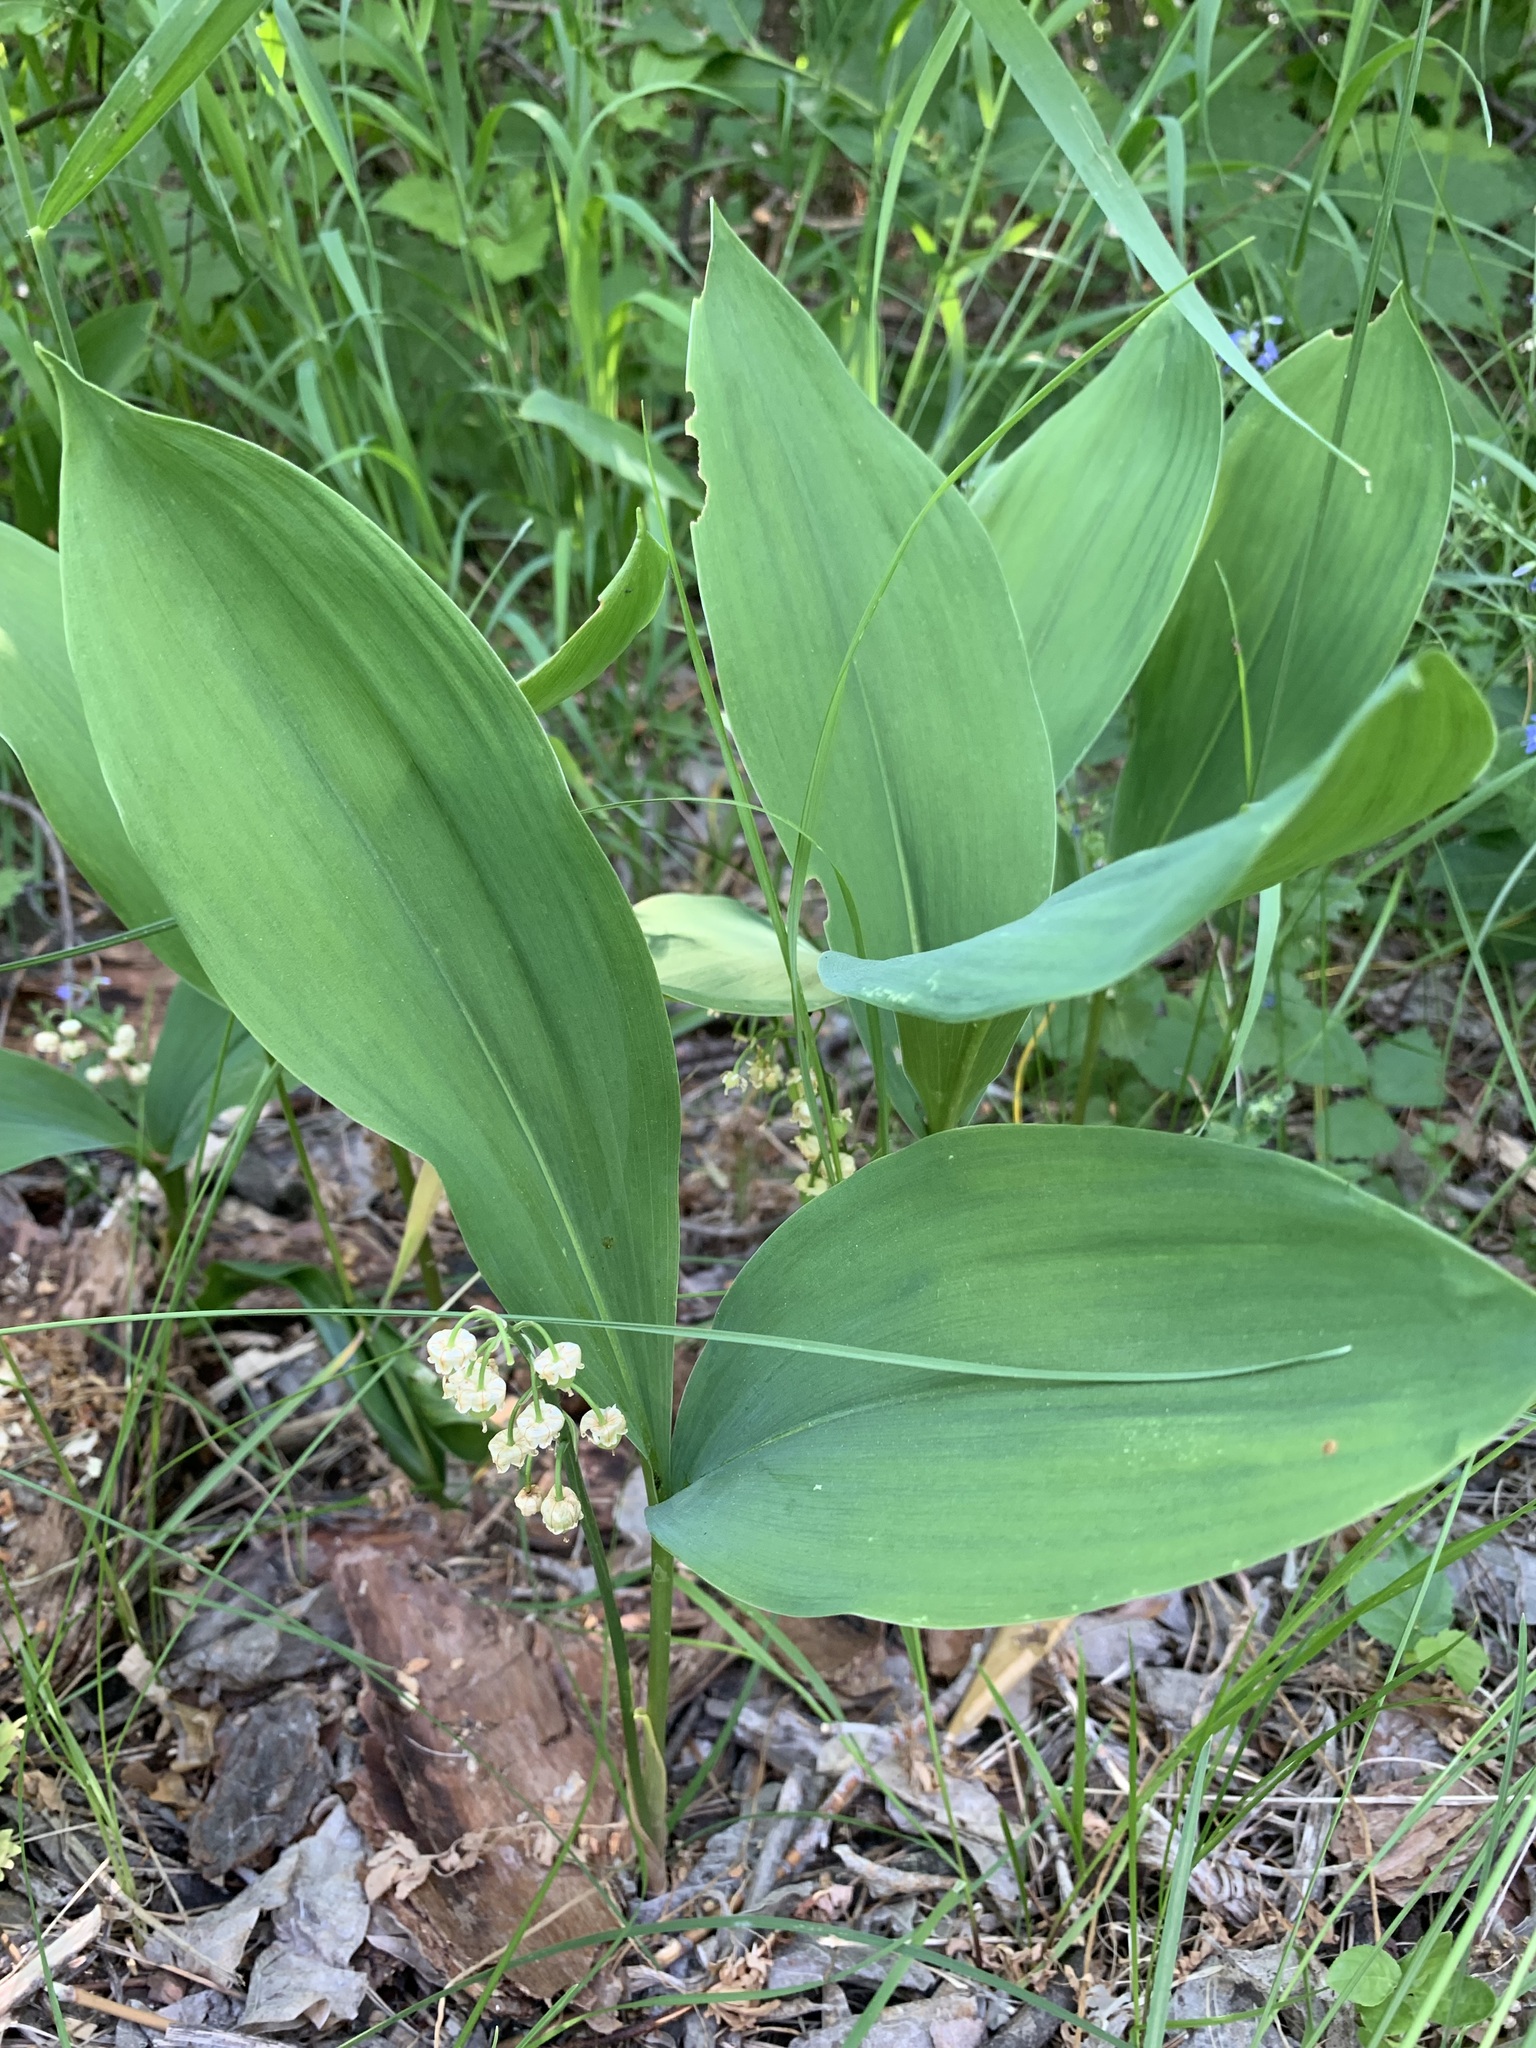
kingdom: Plantae
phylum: Tracheophyta
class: Liliopsida
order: Asparagales
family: Asparagaceae
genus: Convallaria
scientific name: Convallaria majalis
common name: Lily-of-the-valley
